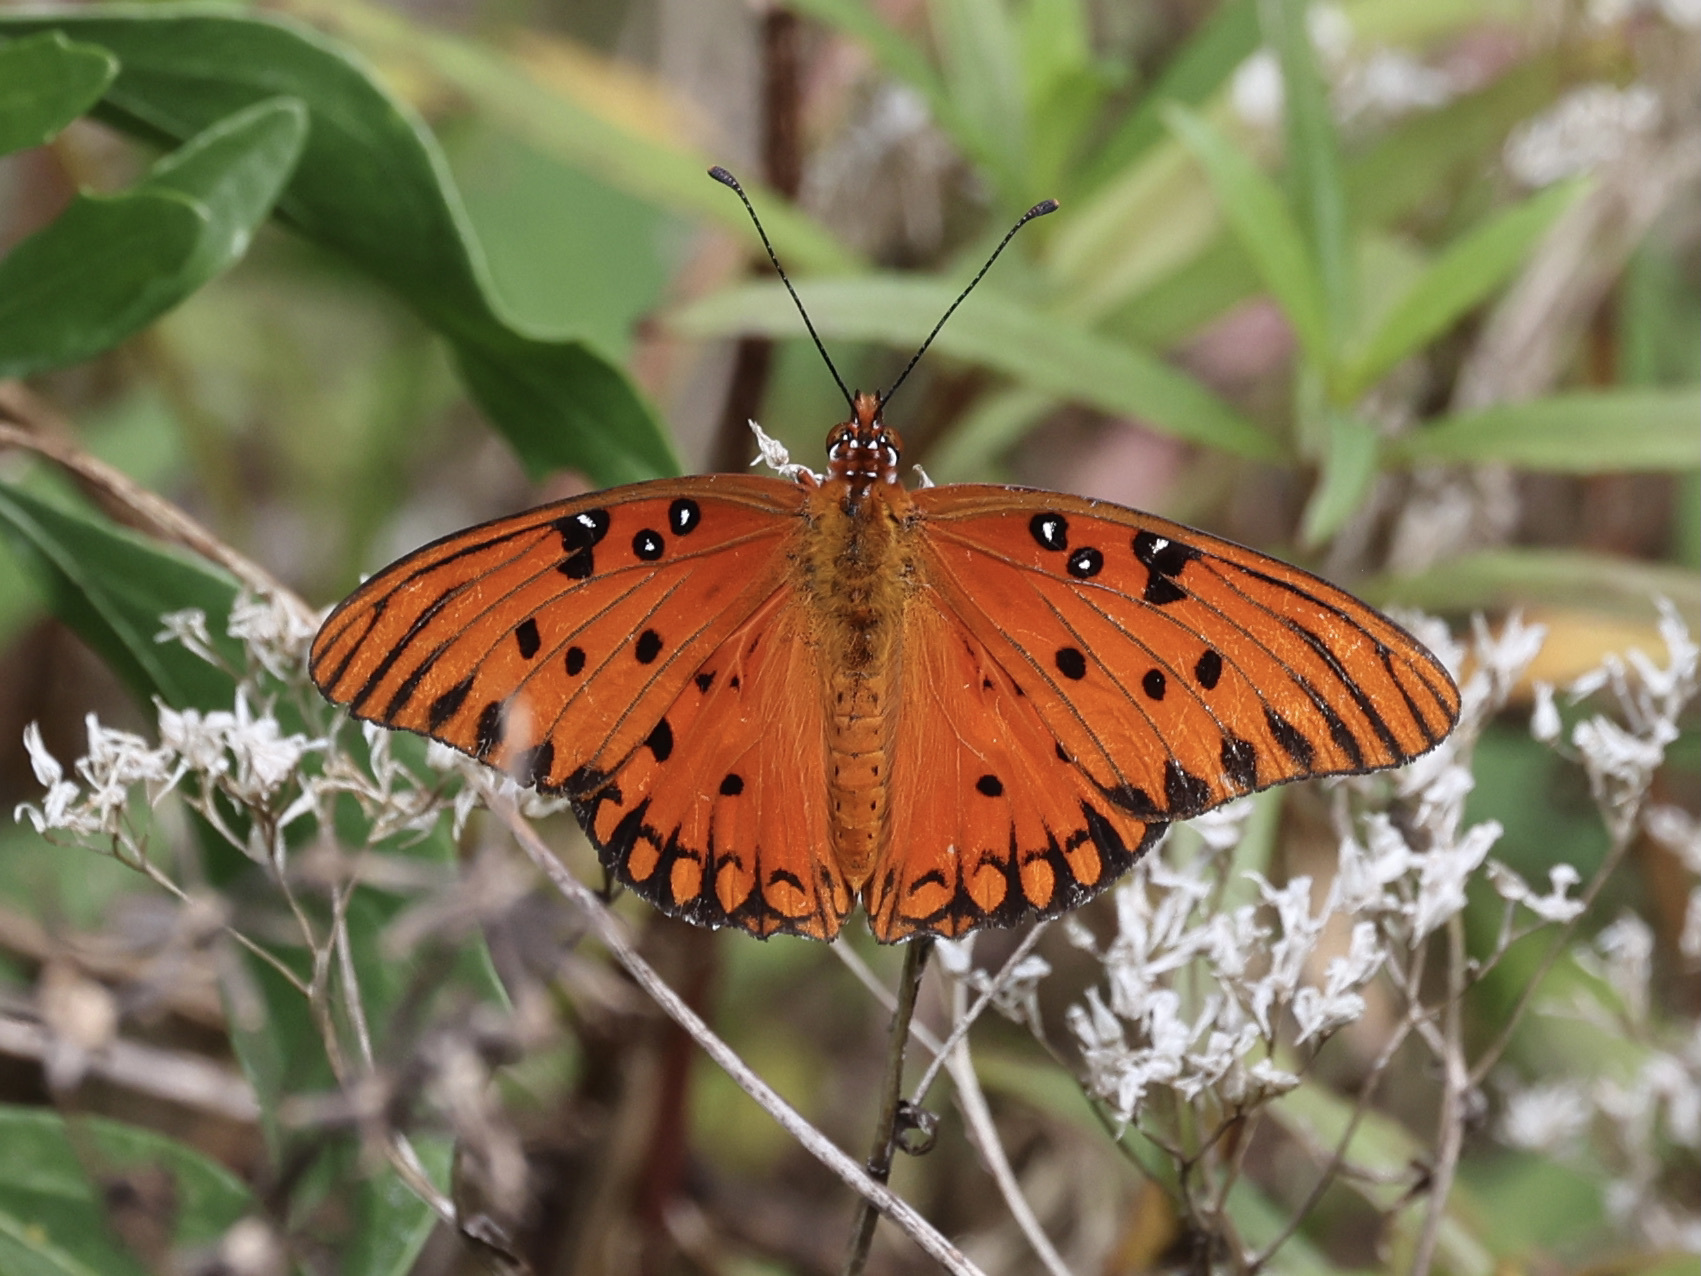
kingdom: Animalia
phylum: Arthropoda
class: Insecta
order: Lepidoptera
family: Nymphalidae
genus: Dione
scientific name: Dione vanillae
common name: Gulf fritillary
